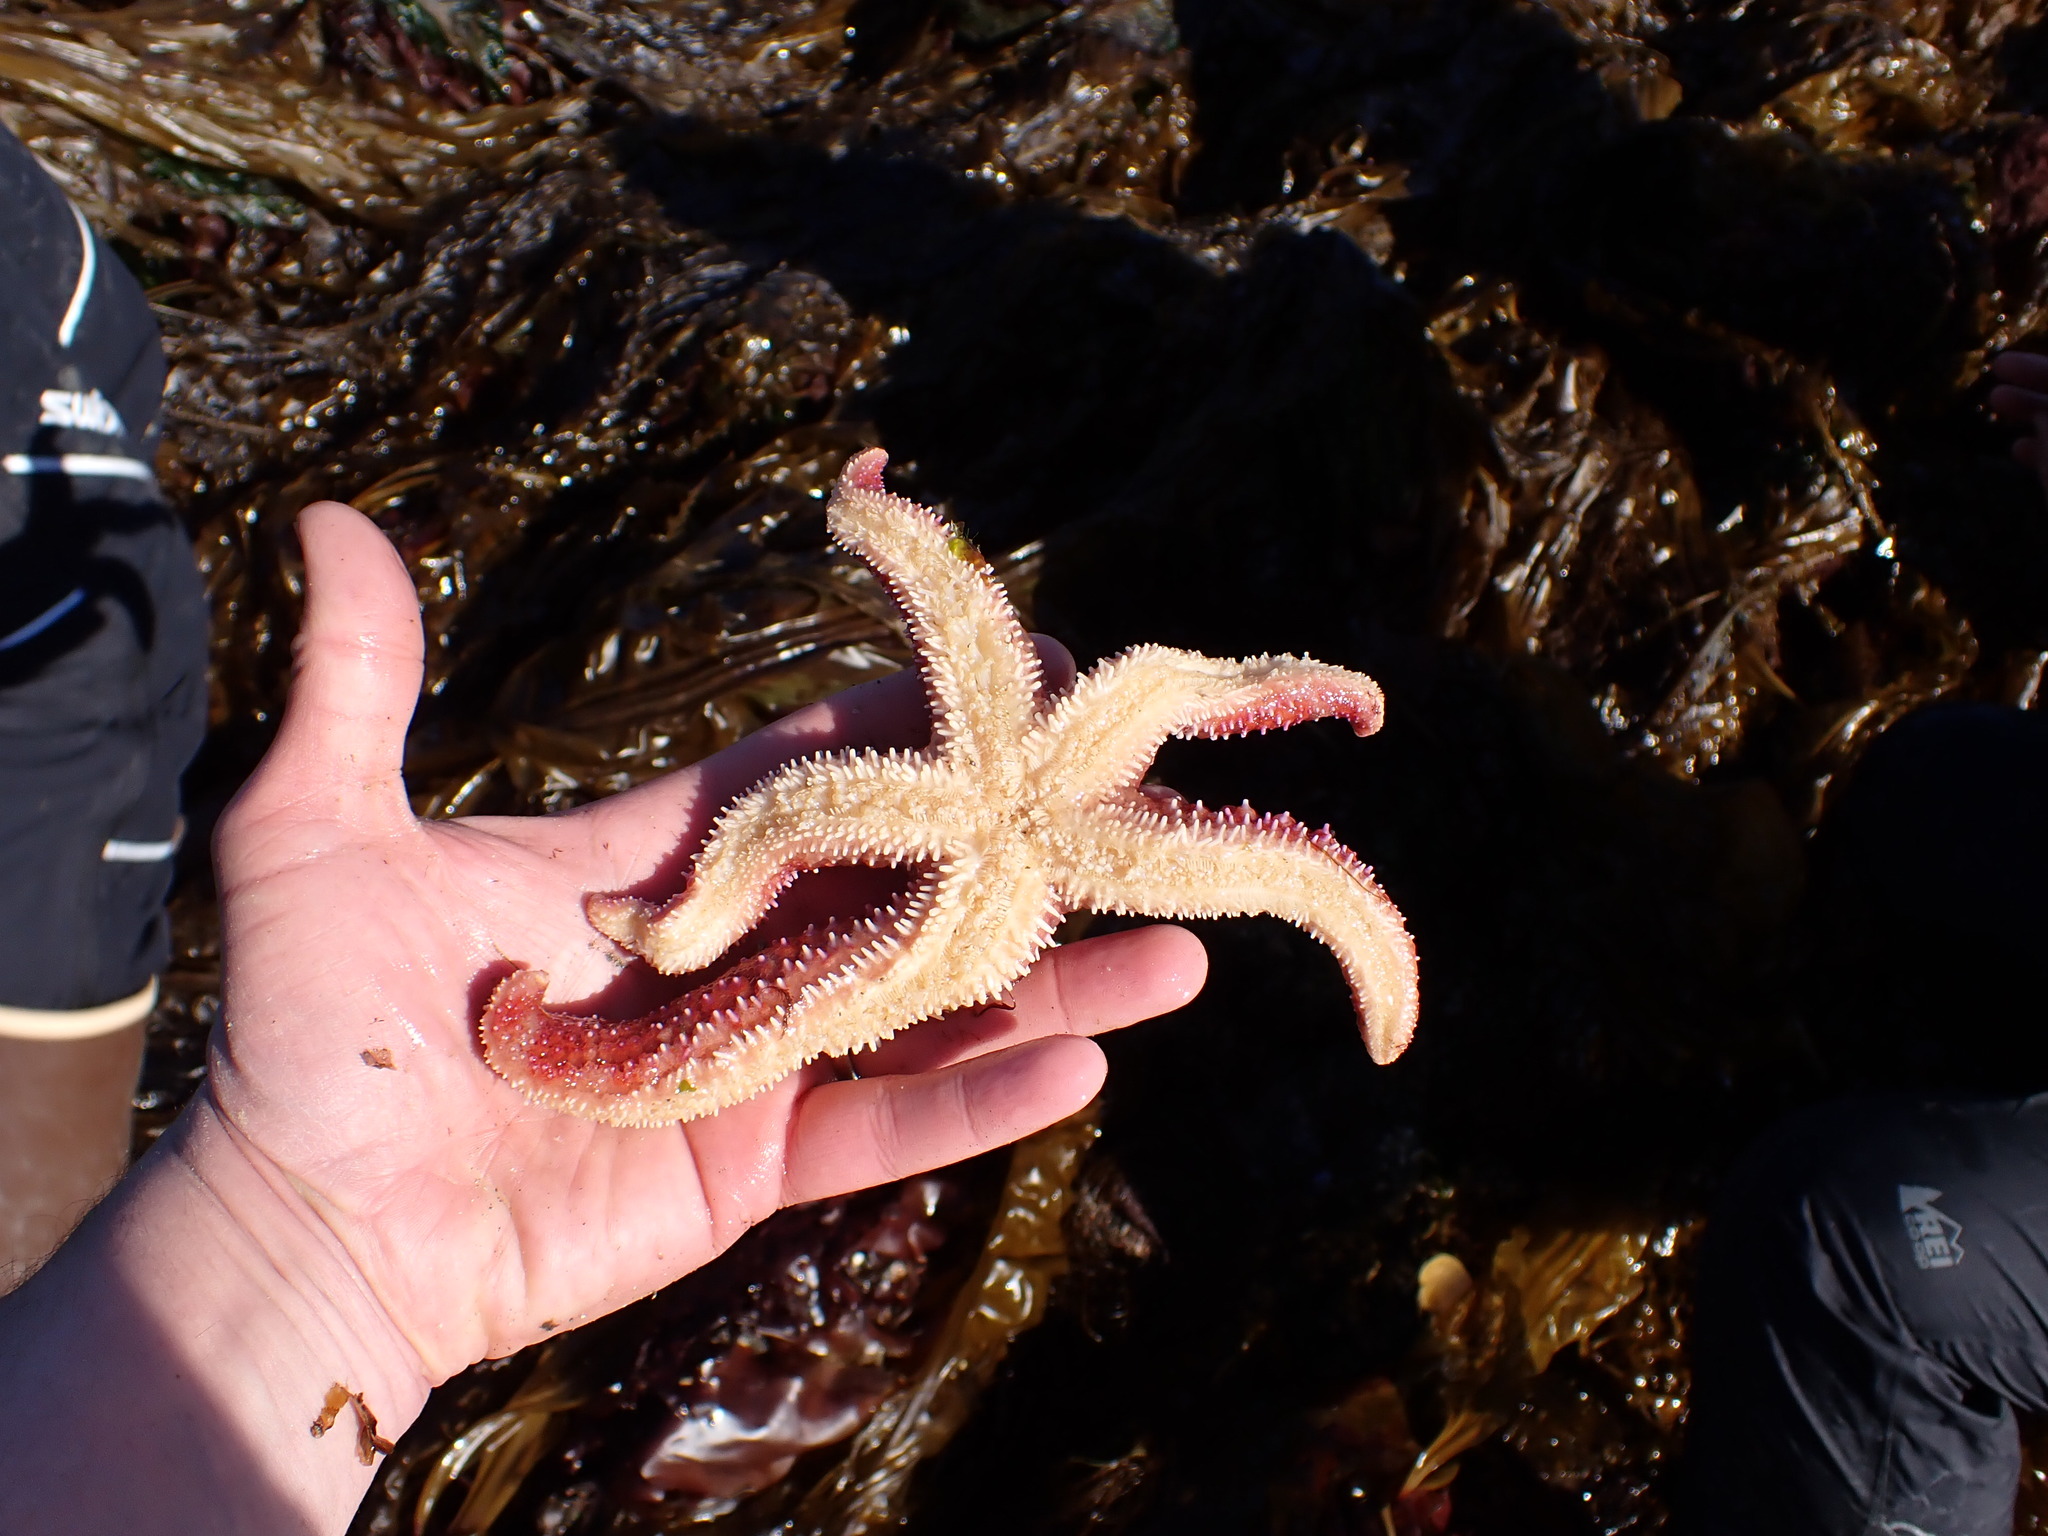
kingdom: Animalia
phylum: Echinodermata
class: Asteroidea
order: Forcipulatida
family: Asteriidae
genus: Orthasterias
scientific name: Orthasterias koehleri
